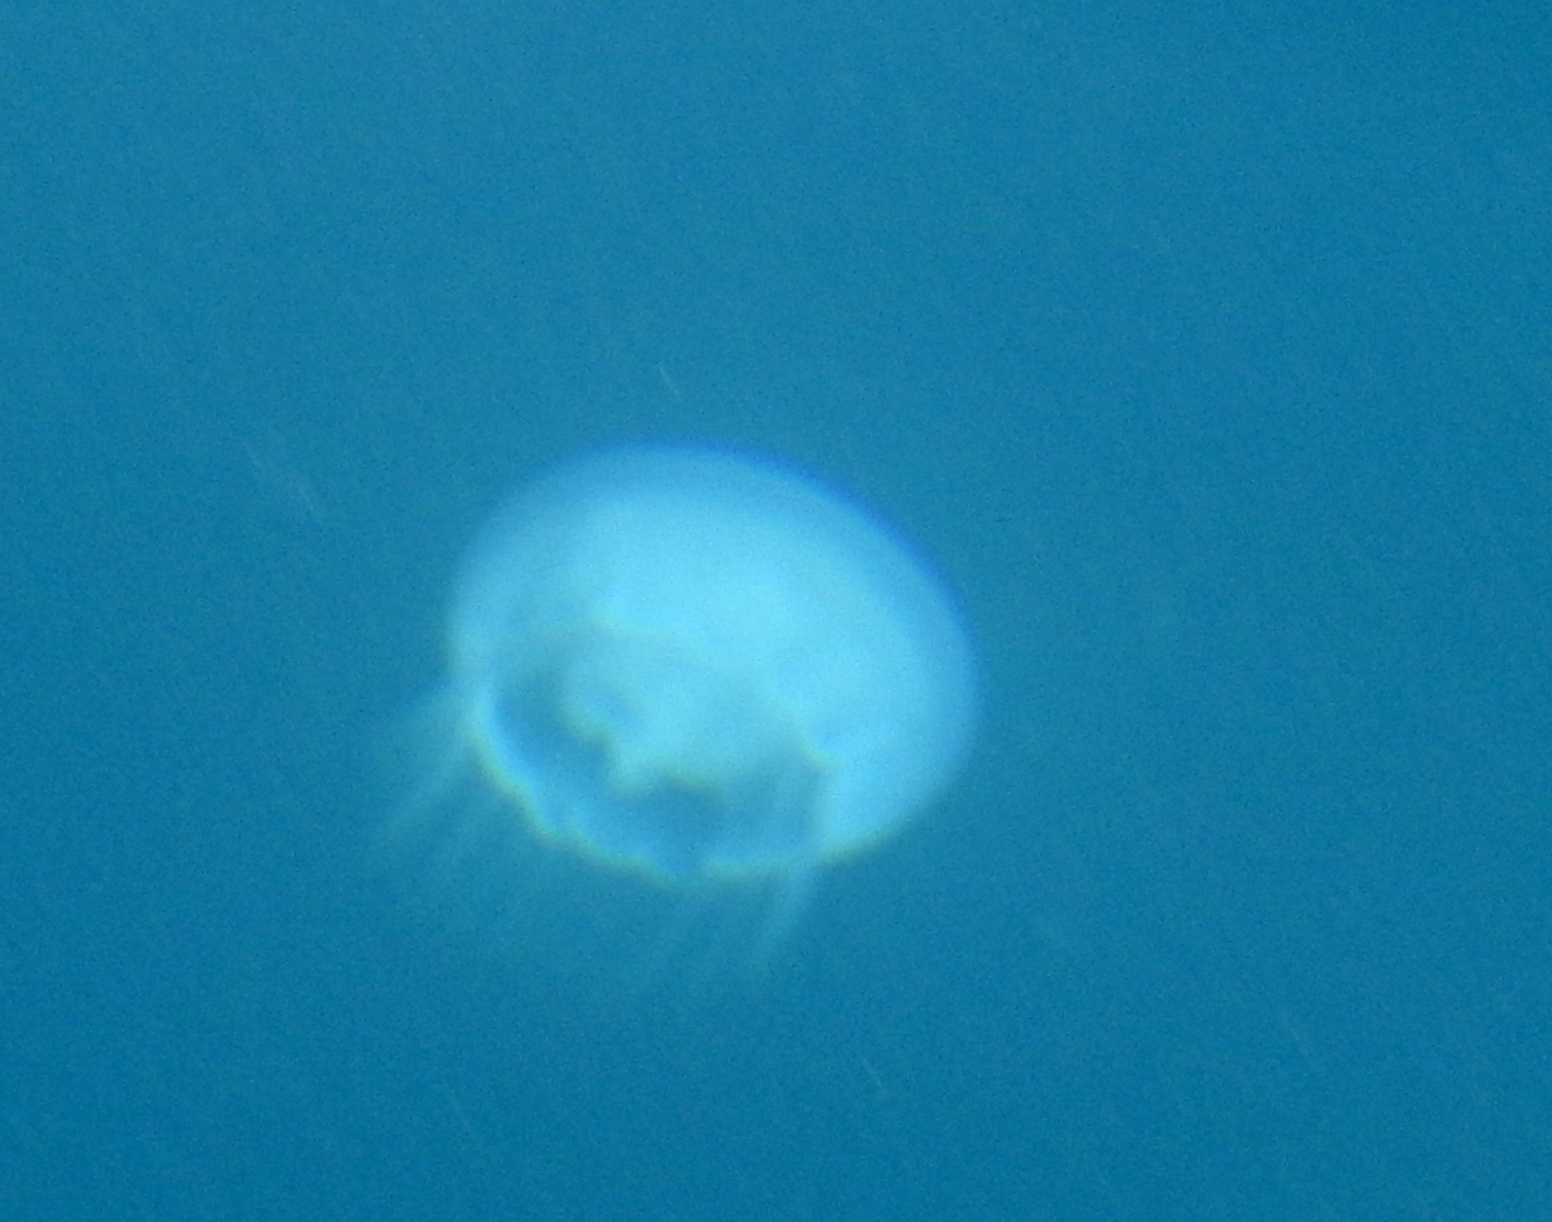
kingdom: Animalia
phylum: Cnidaria
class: Scyphozoa
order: Semaeostomeae
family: Ulmaridae
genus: Aurelia
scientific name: Aurelia labiata
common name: Pacific moon jelly
